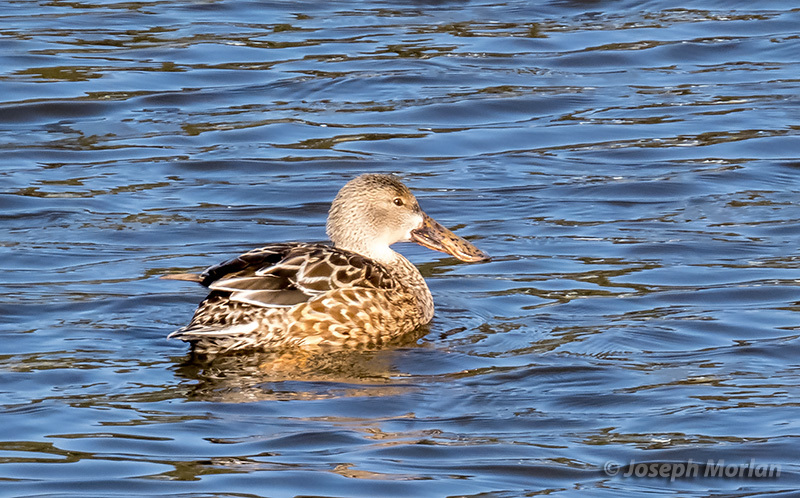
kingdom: Animalia
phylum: Chordata
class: Aves
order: Anseriformes
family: Anatidae
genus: Spatula
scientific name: Spatula clypeata
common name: Northern shoveler
